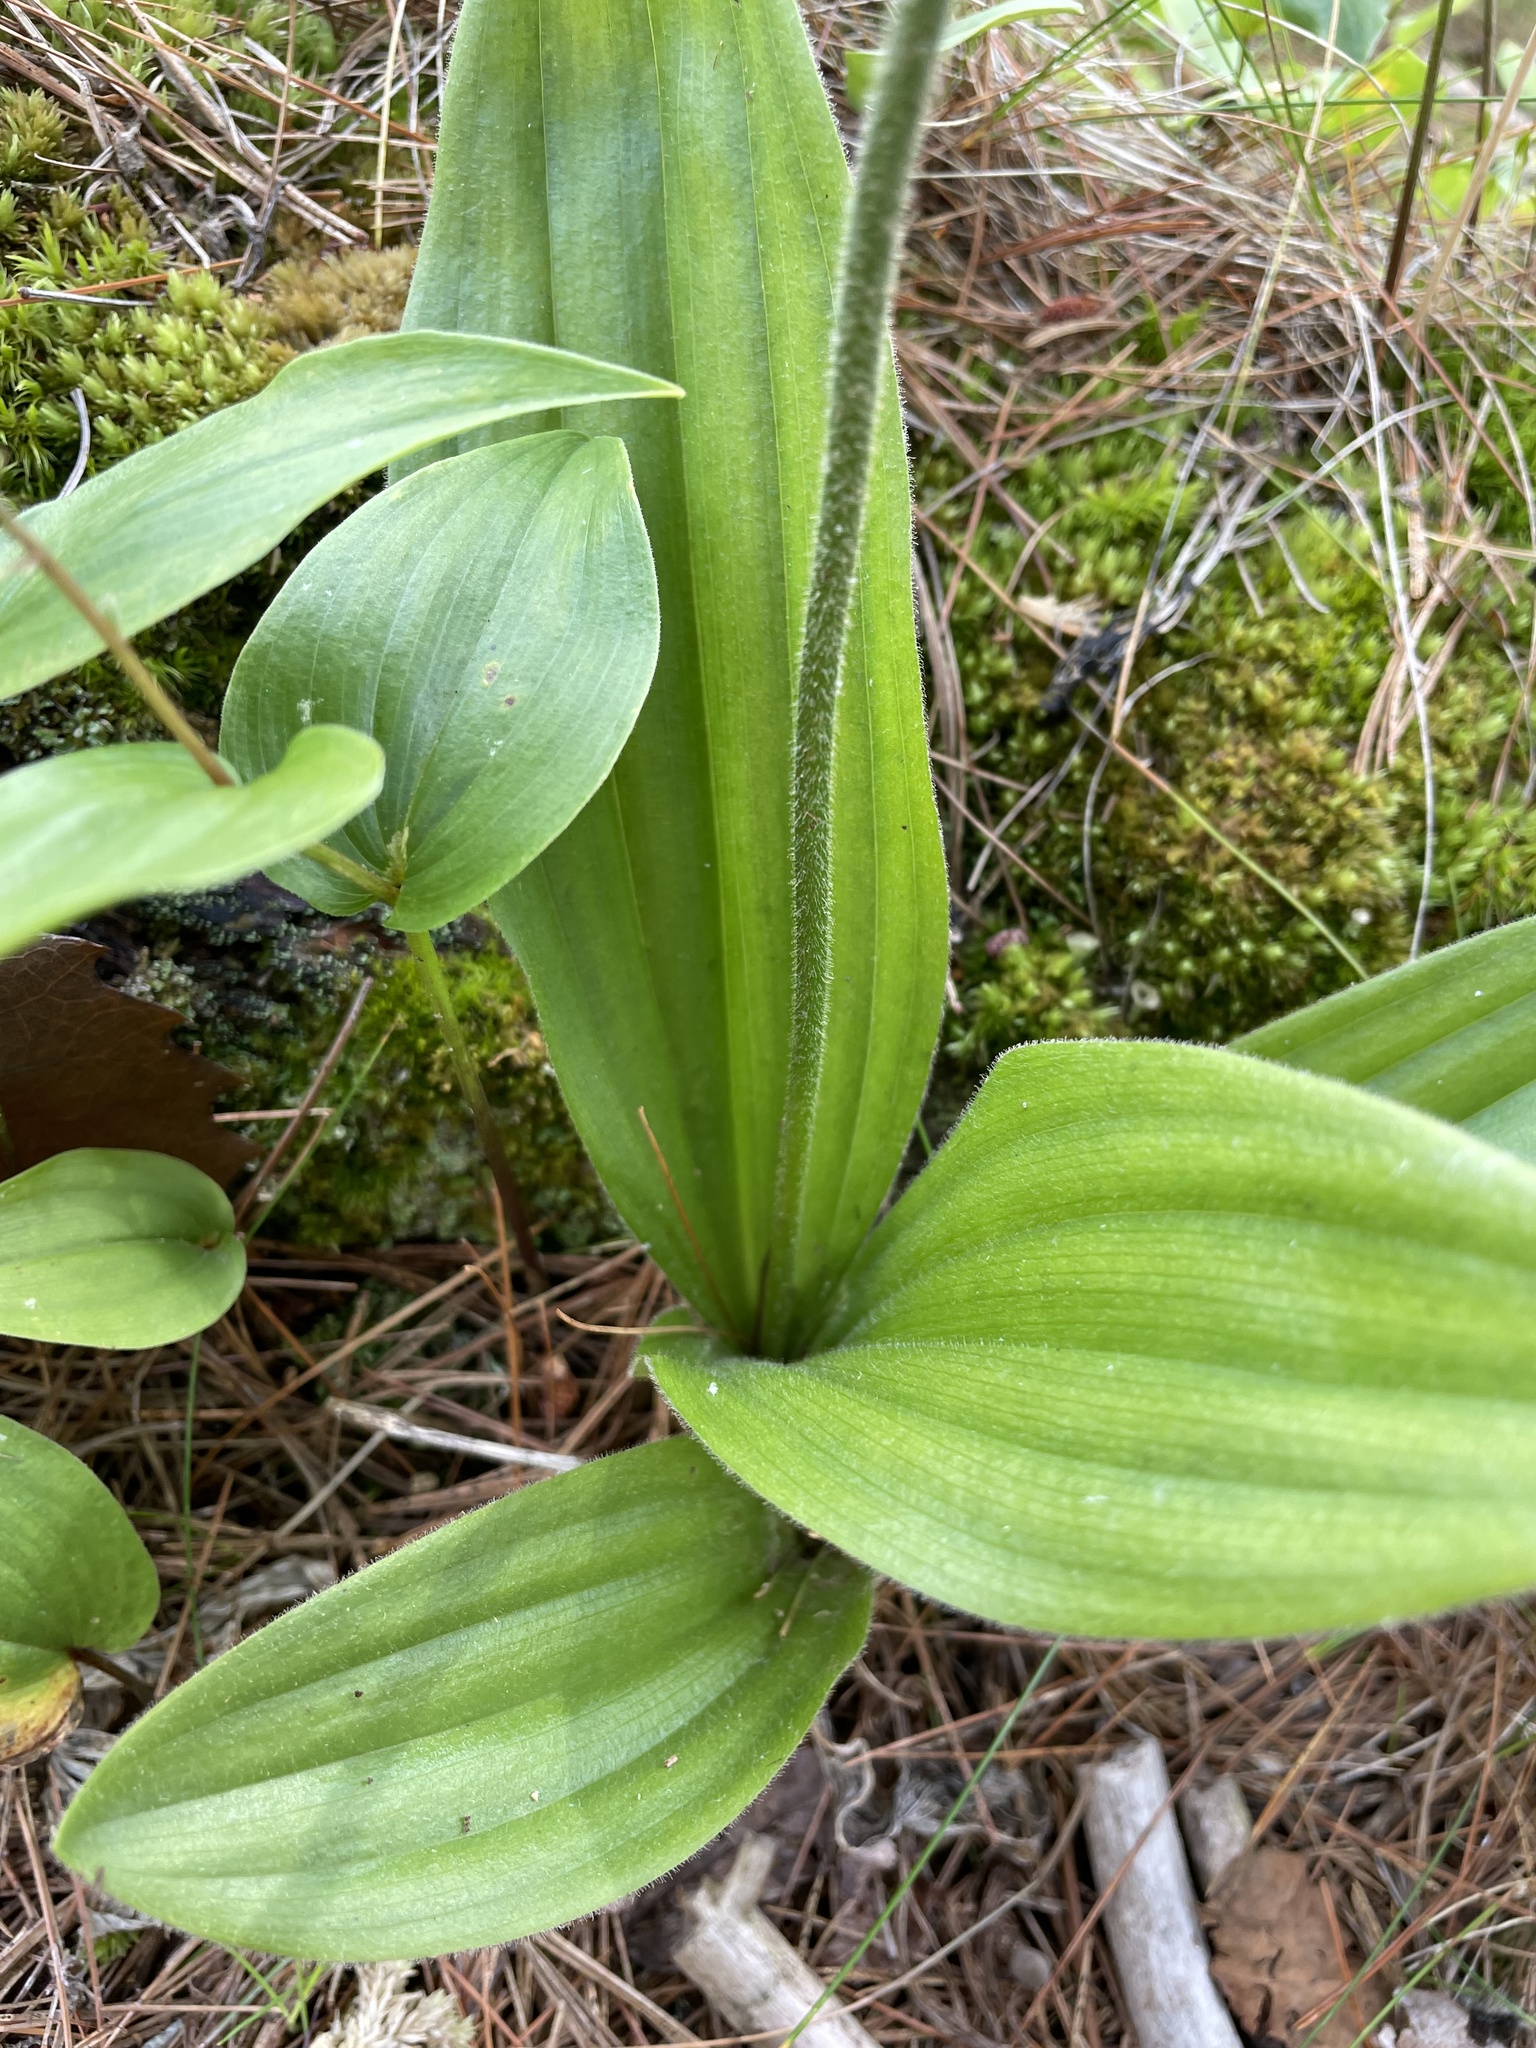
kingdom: Plantae
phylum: Tracheophyta
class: Liliopsida
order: Asparagales
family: Orchidaceae
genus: Cypripedium
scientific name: Cypripedium acaule
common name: Pink lady's-slipper
